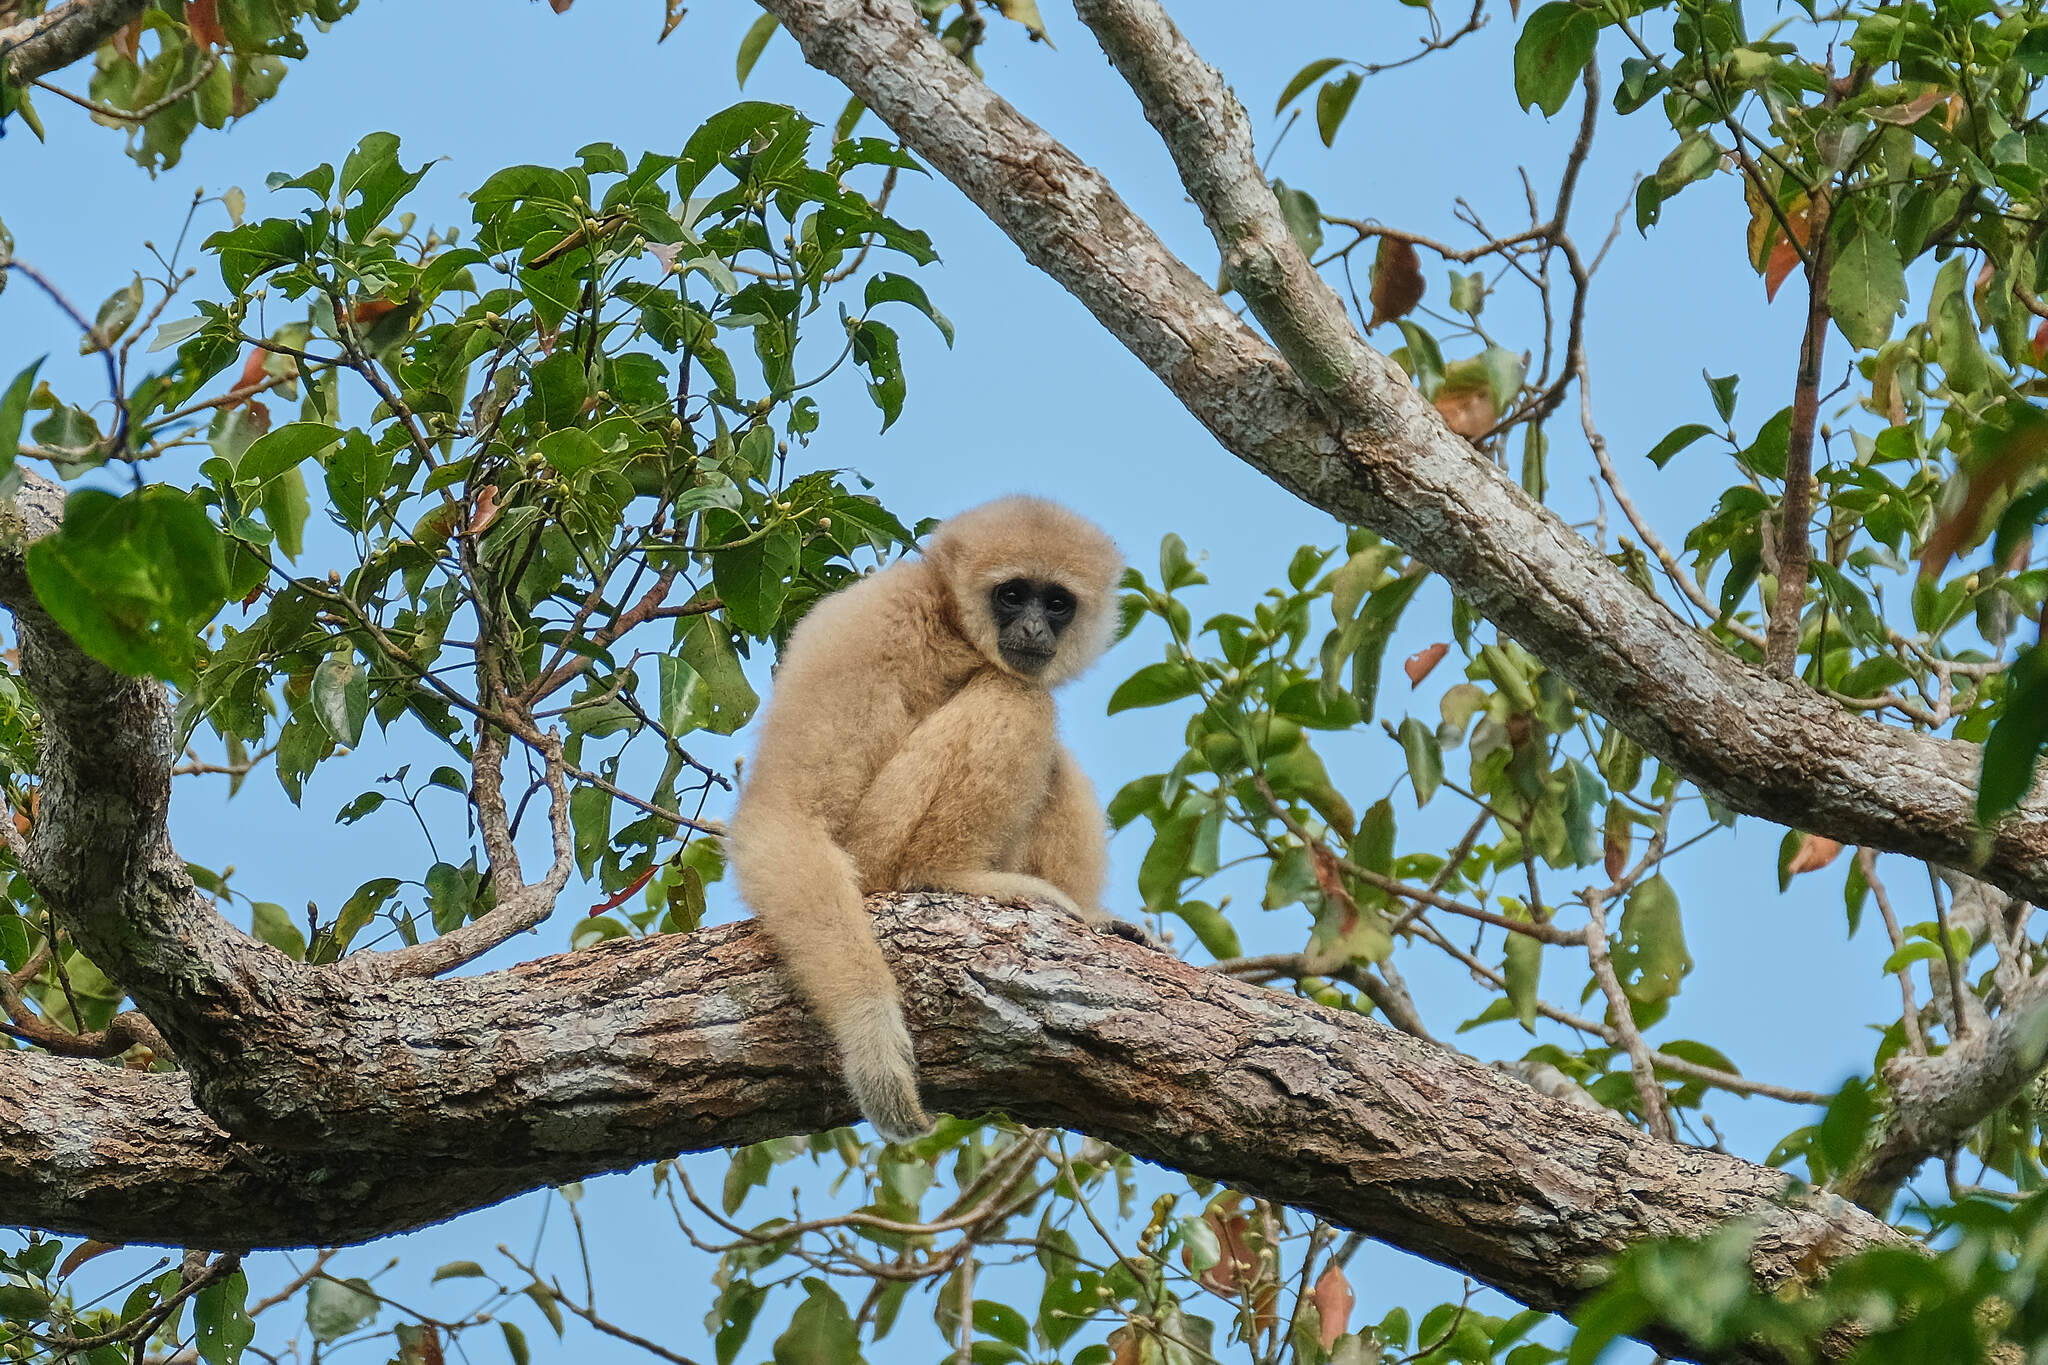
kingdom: Animalia
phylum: Chordata
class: Mammalia
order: Primates
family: Hylobatidae
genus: Hylobates
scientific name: Hylobates lar
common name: Lar gibbon
